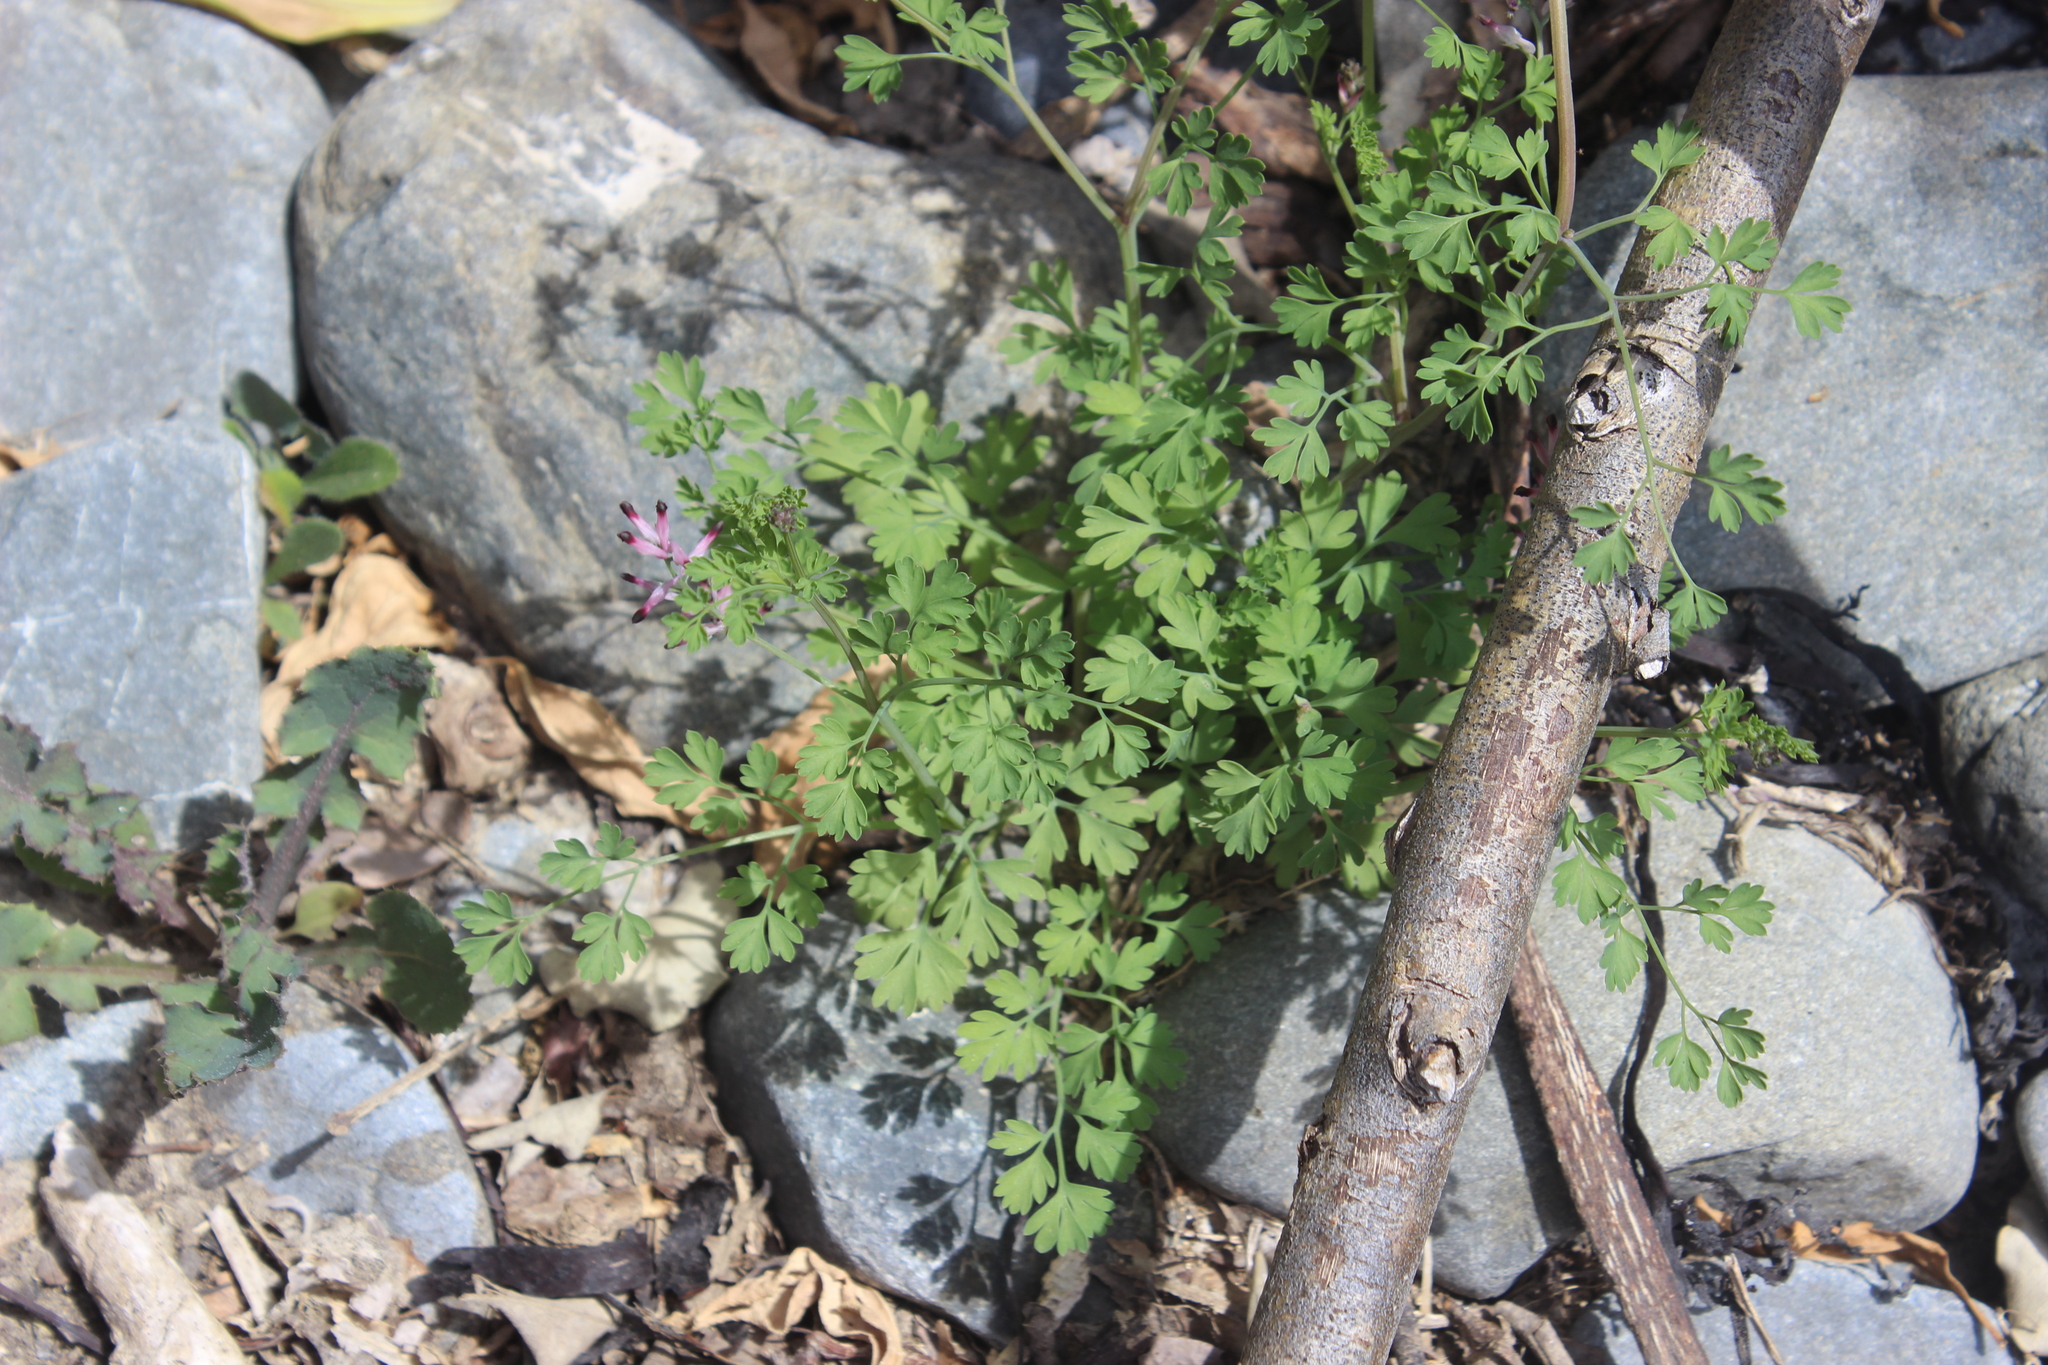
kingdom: Plantae
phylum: Tracheophyta
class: Magnoliopsida
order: Ranunculales
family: Papaveraceae
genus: Fumaria
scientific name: Fumaria muralis
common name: Common ramping-fumitory
